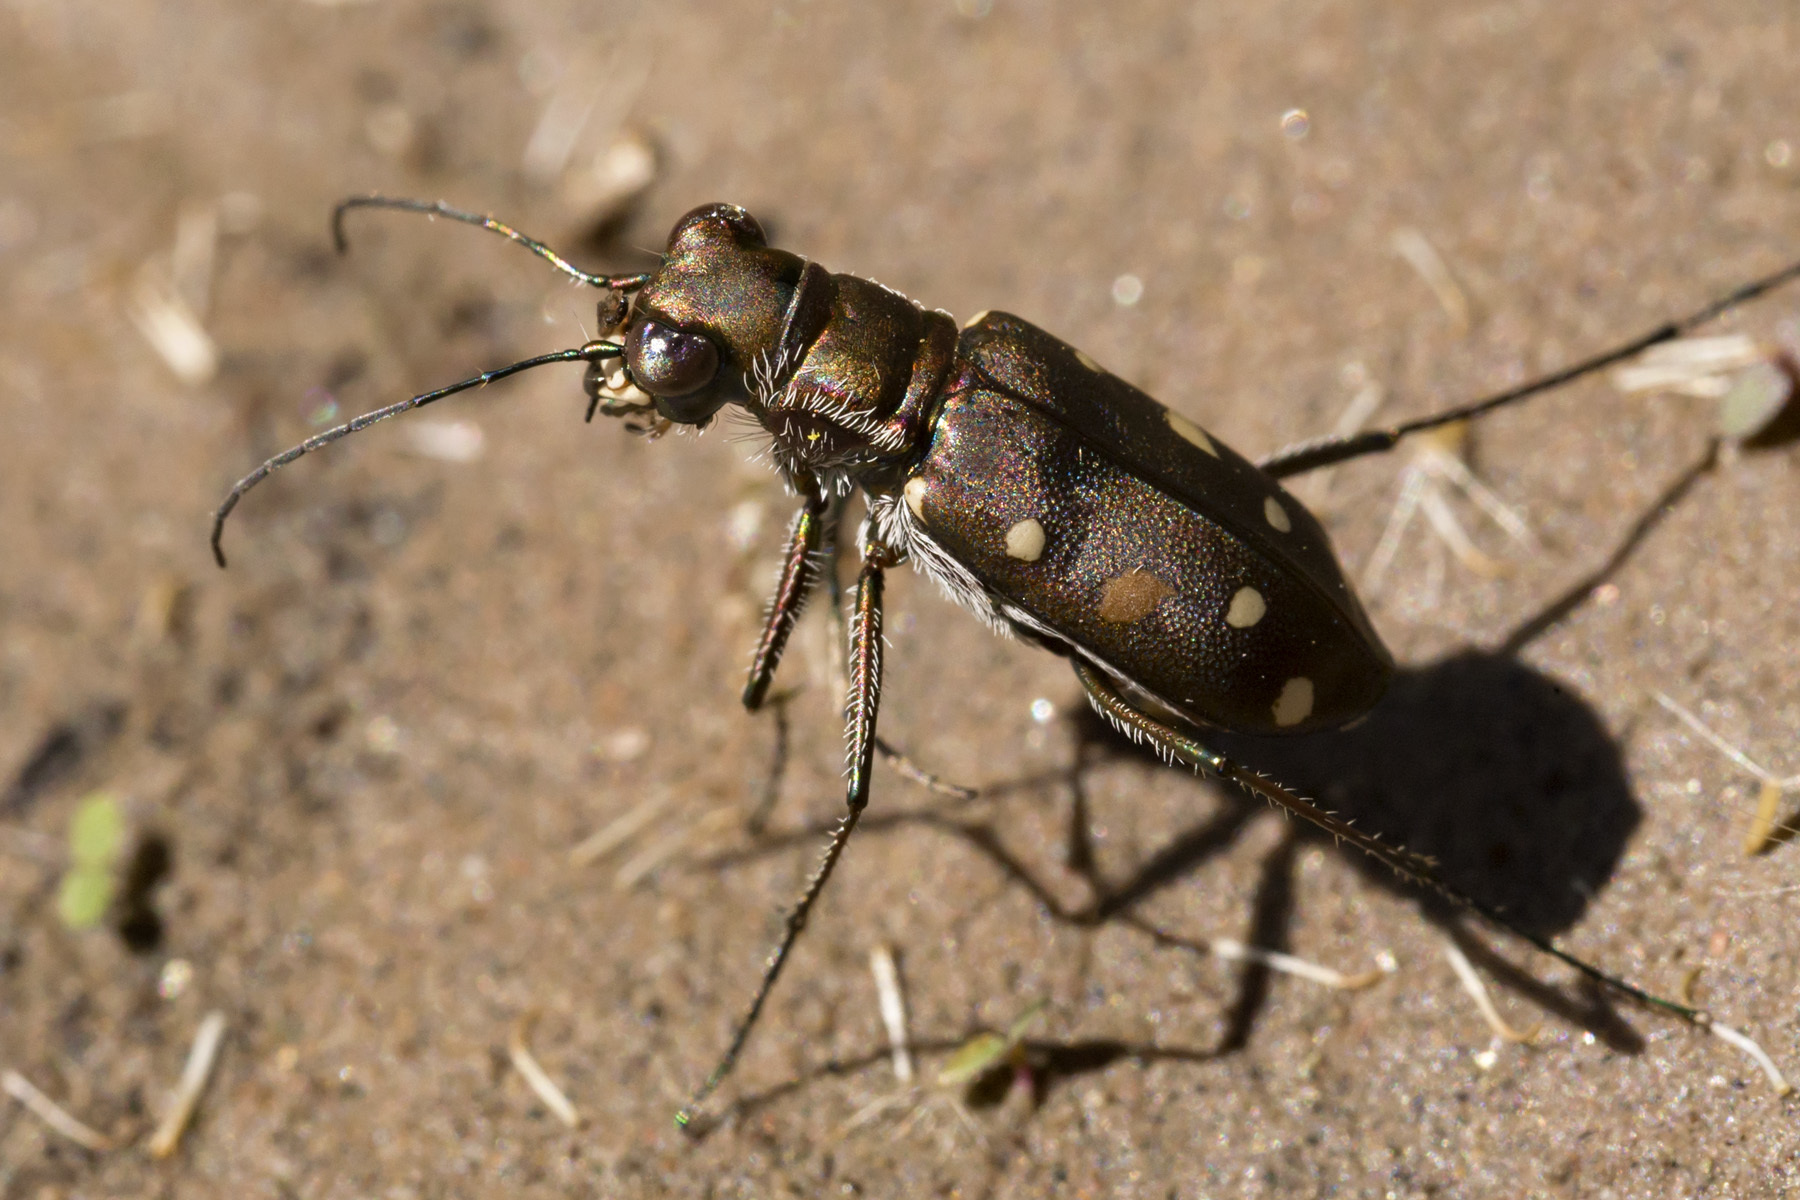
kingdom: Animalia
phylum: Arthropoda
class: Insecta
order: Coleoptera
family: Carabidae
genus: Cicindela
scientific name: Cicindela ocellata
